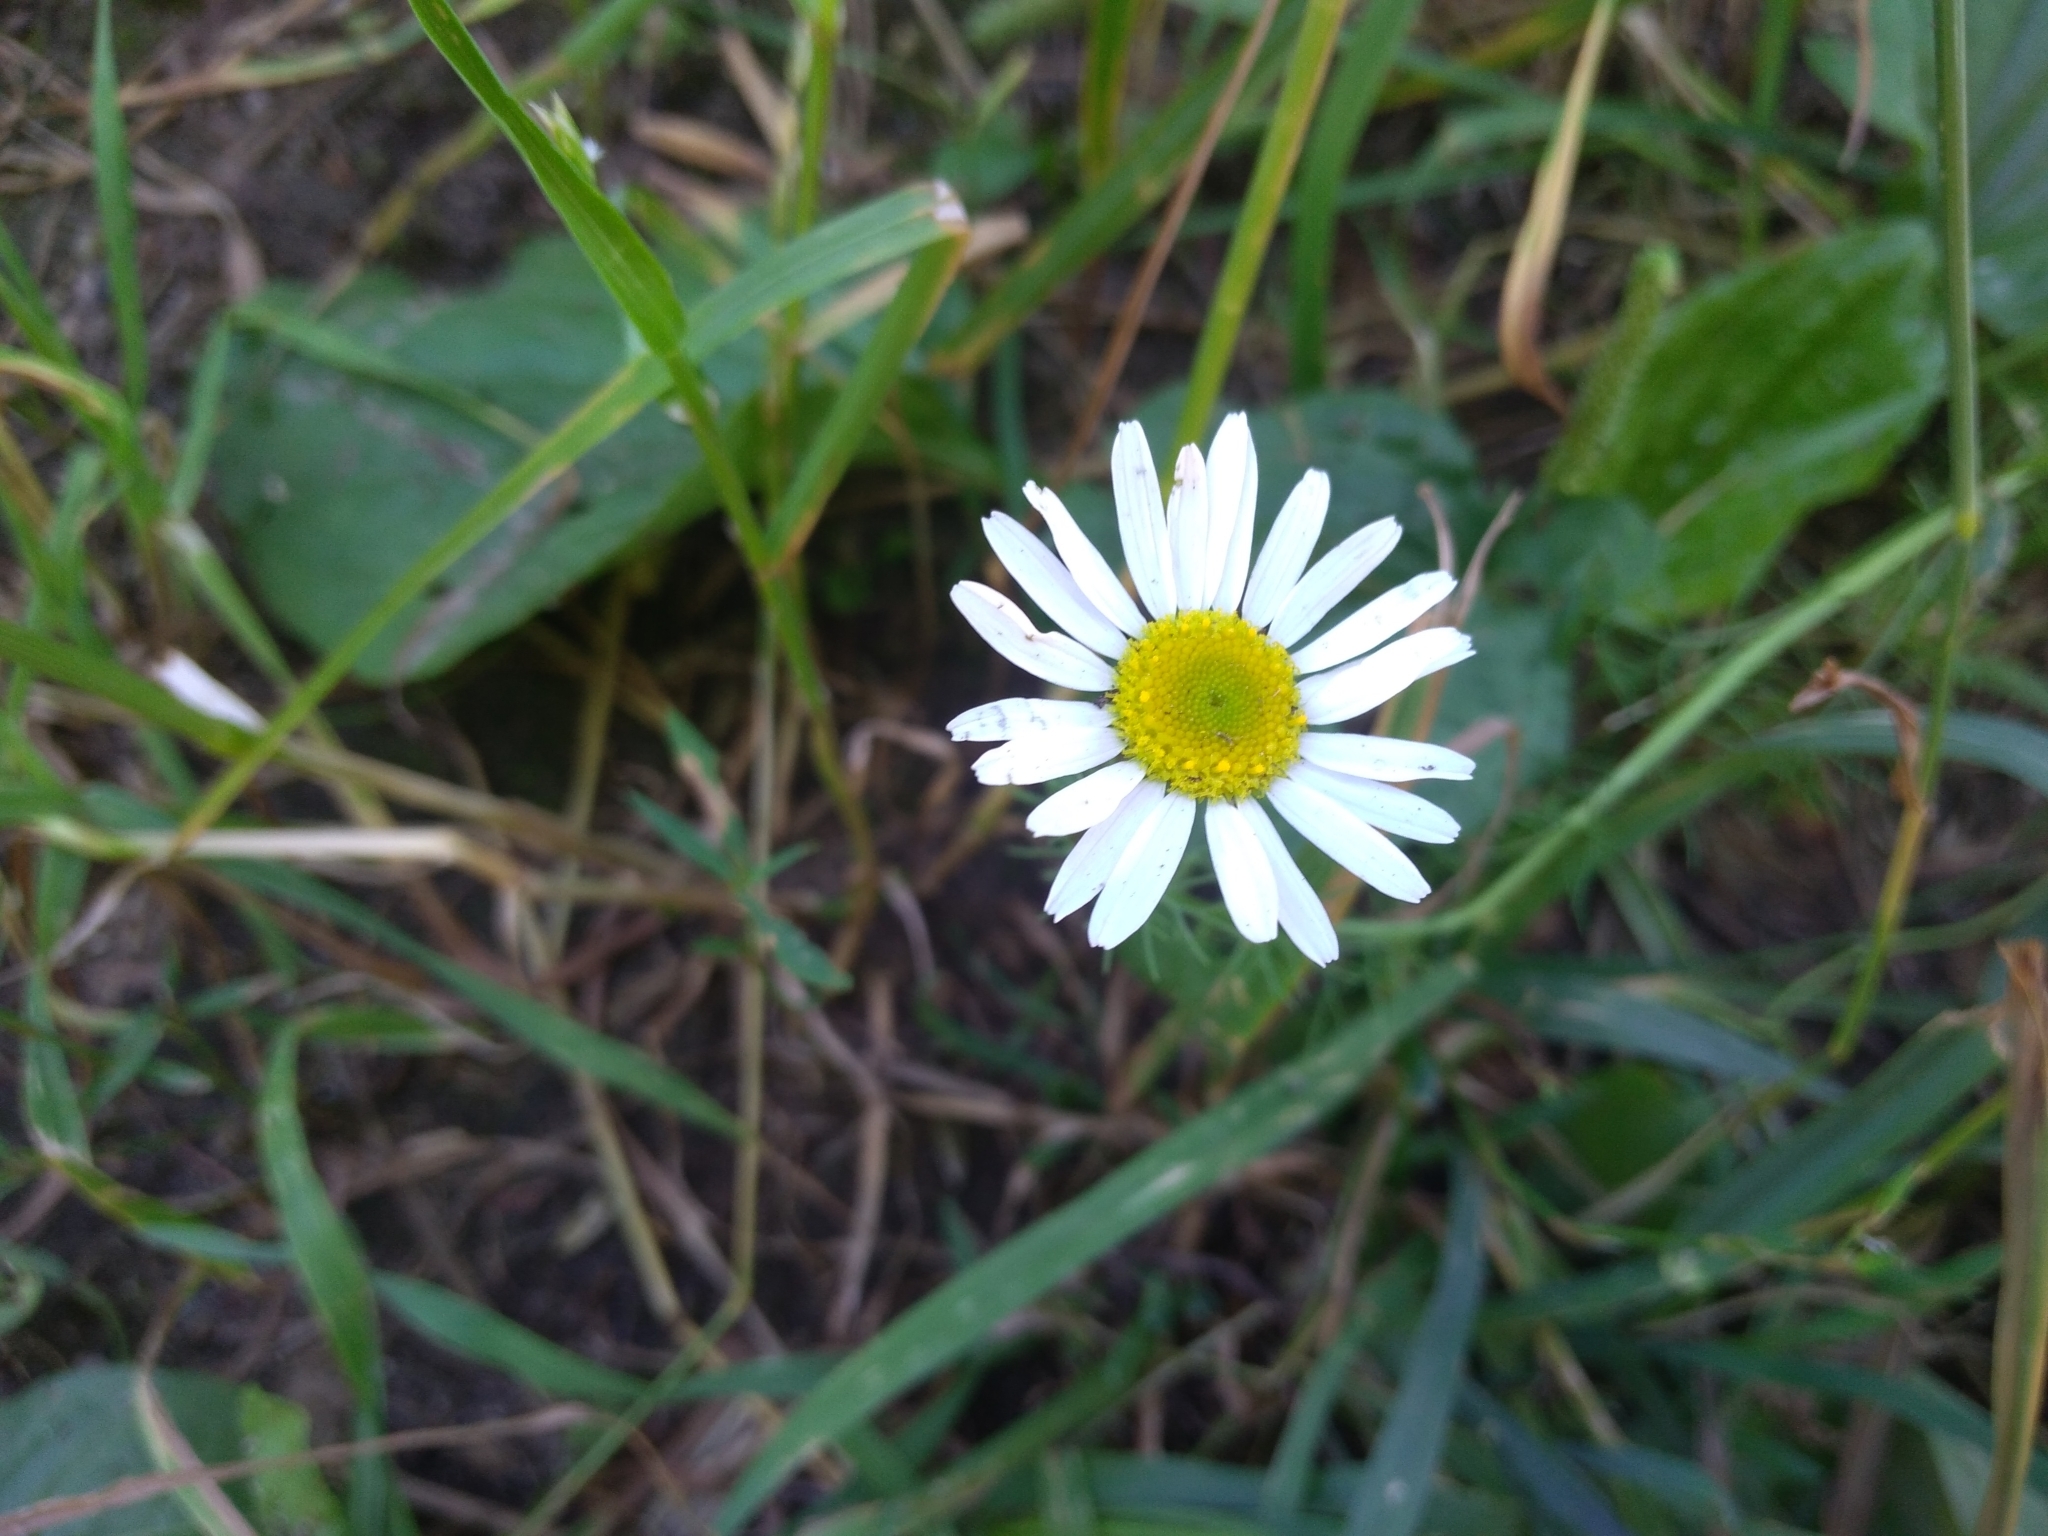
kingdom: Plantae
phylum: Tracheophyta
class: Magnoliopsida
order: Asterales
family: Asteraceae
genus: Tripleurospermum
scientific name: Tripleurospermum inodorum
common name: Scentless mayweed
